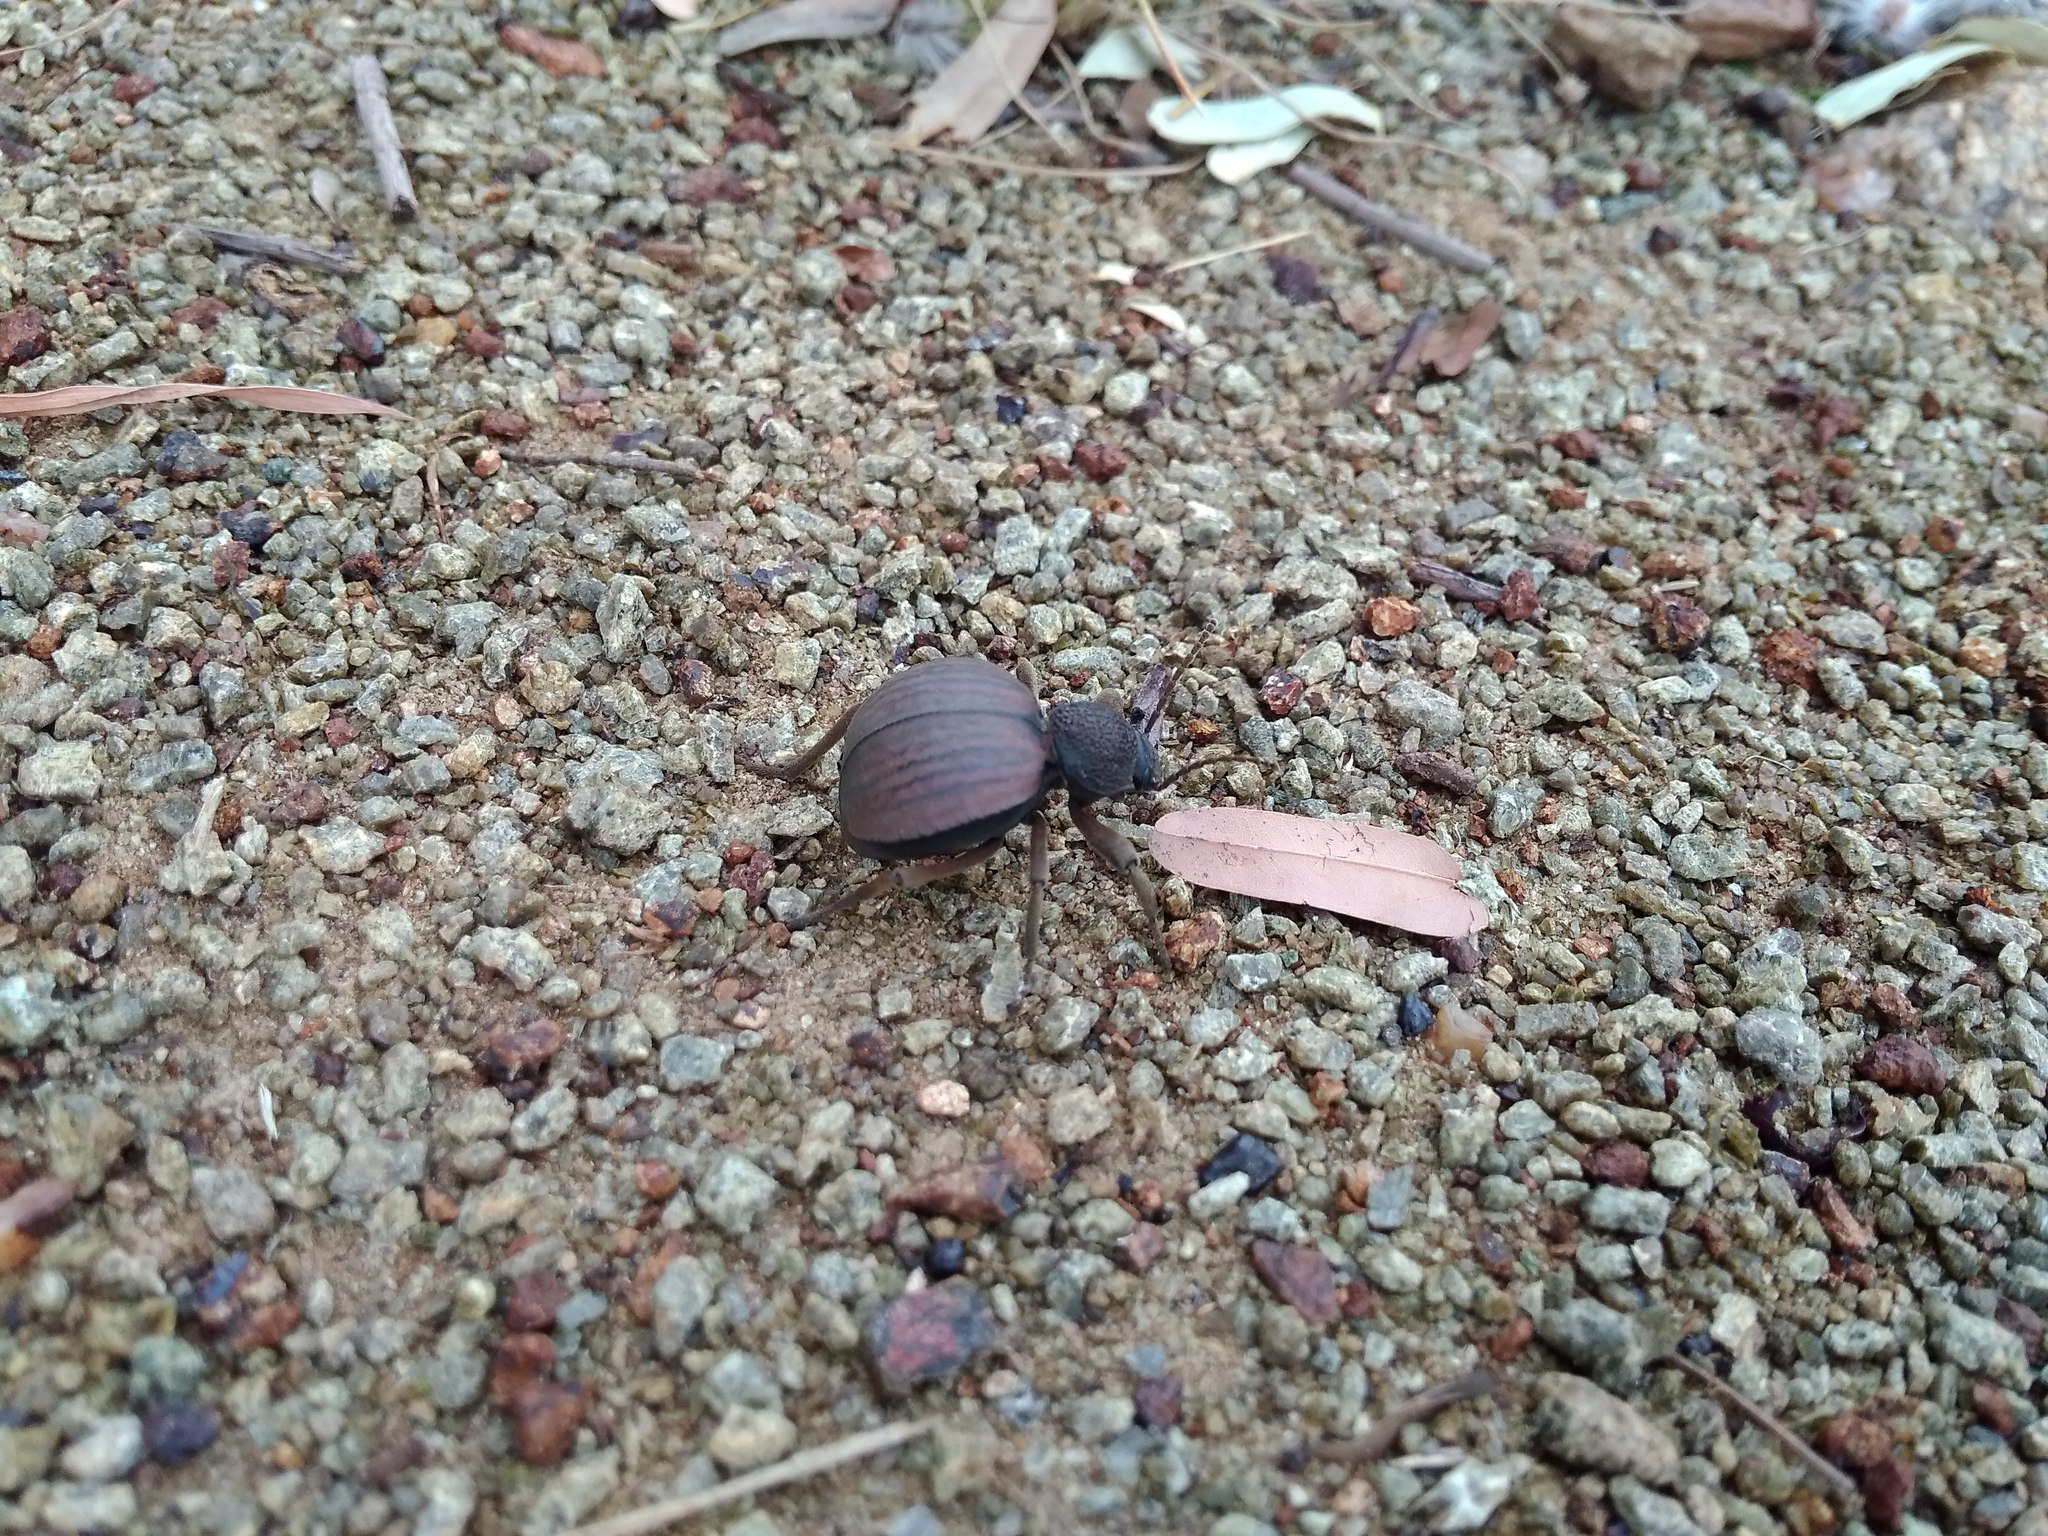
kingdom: Animalia
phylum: Arthropoda
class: Insecta
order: Coleoptera
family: Tenebrionidae
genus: Dichtha
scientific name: Dichtha inflata
